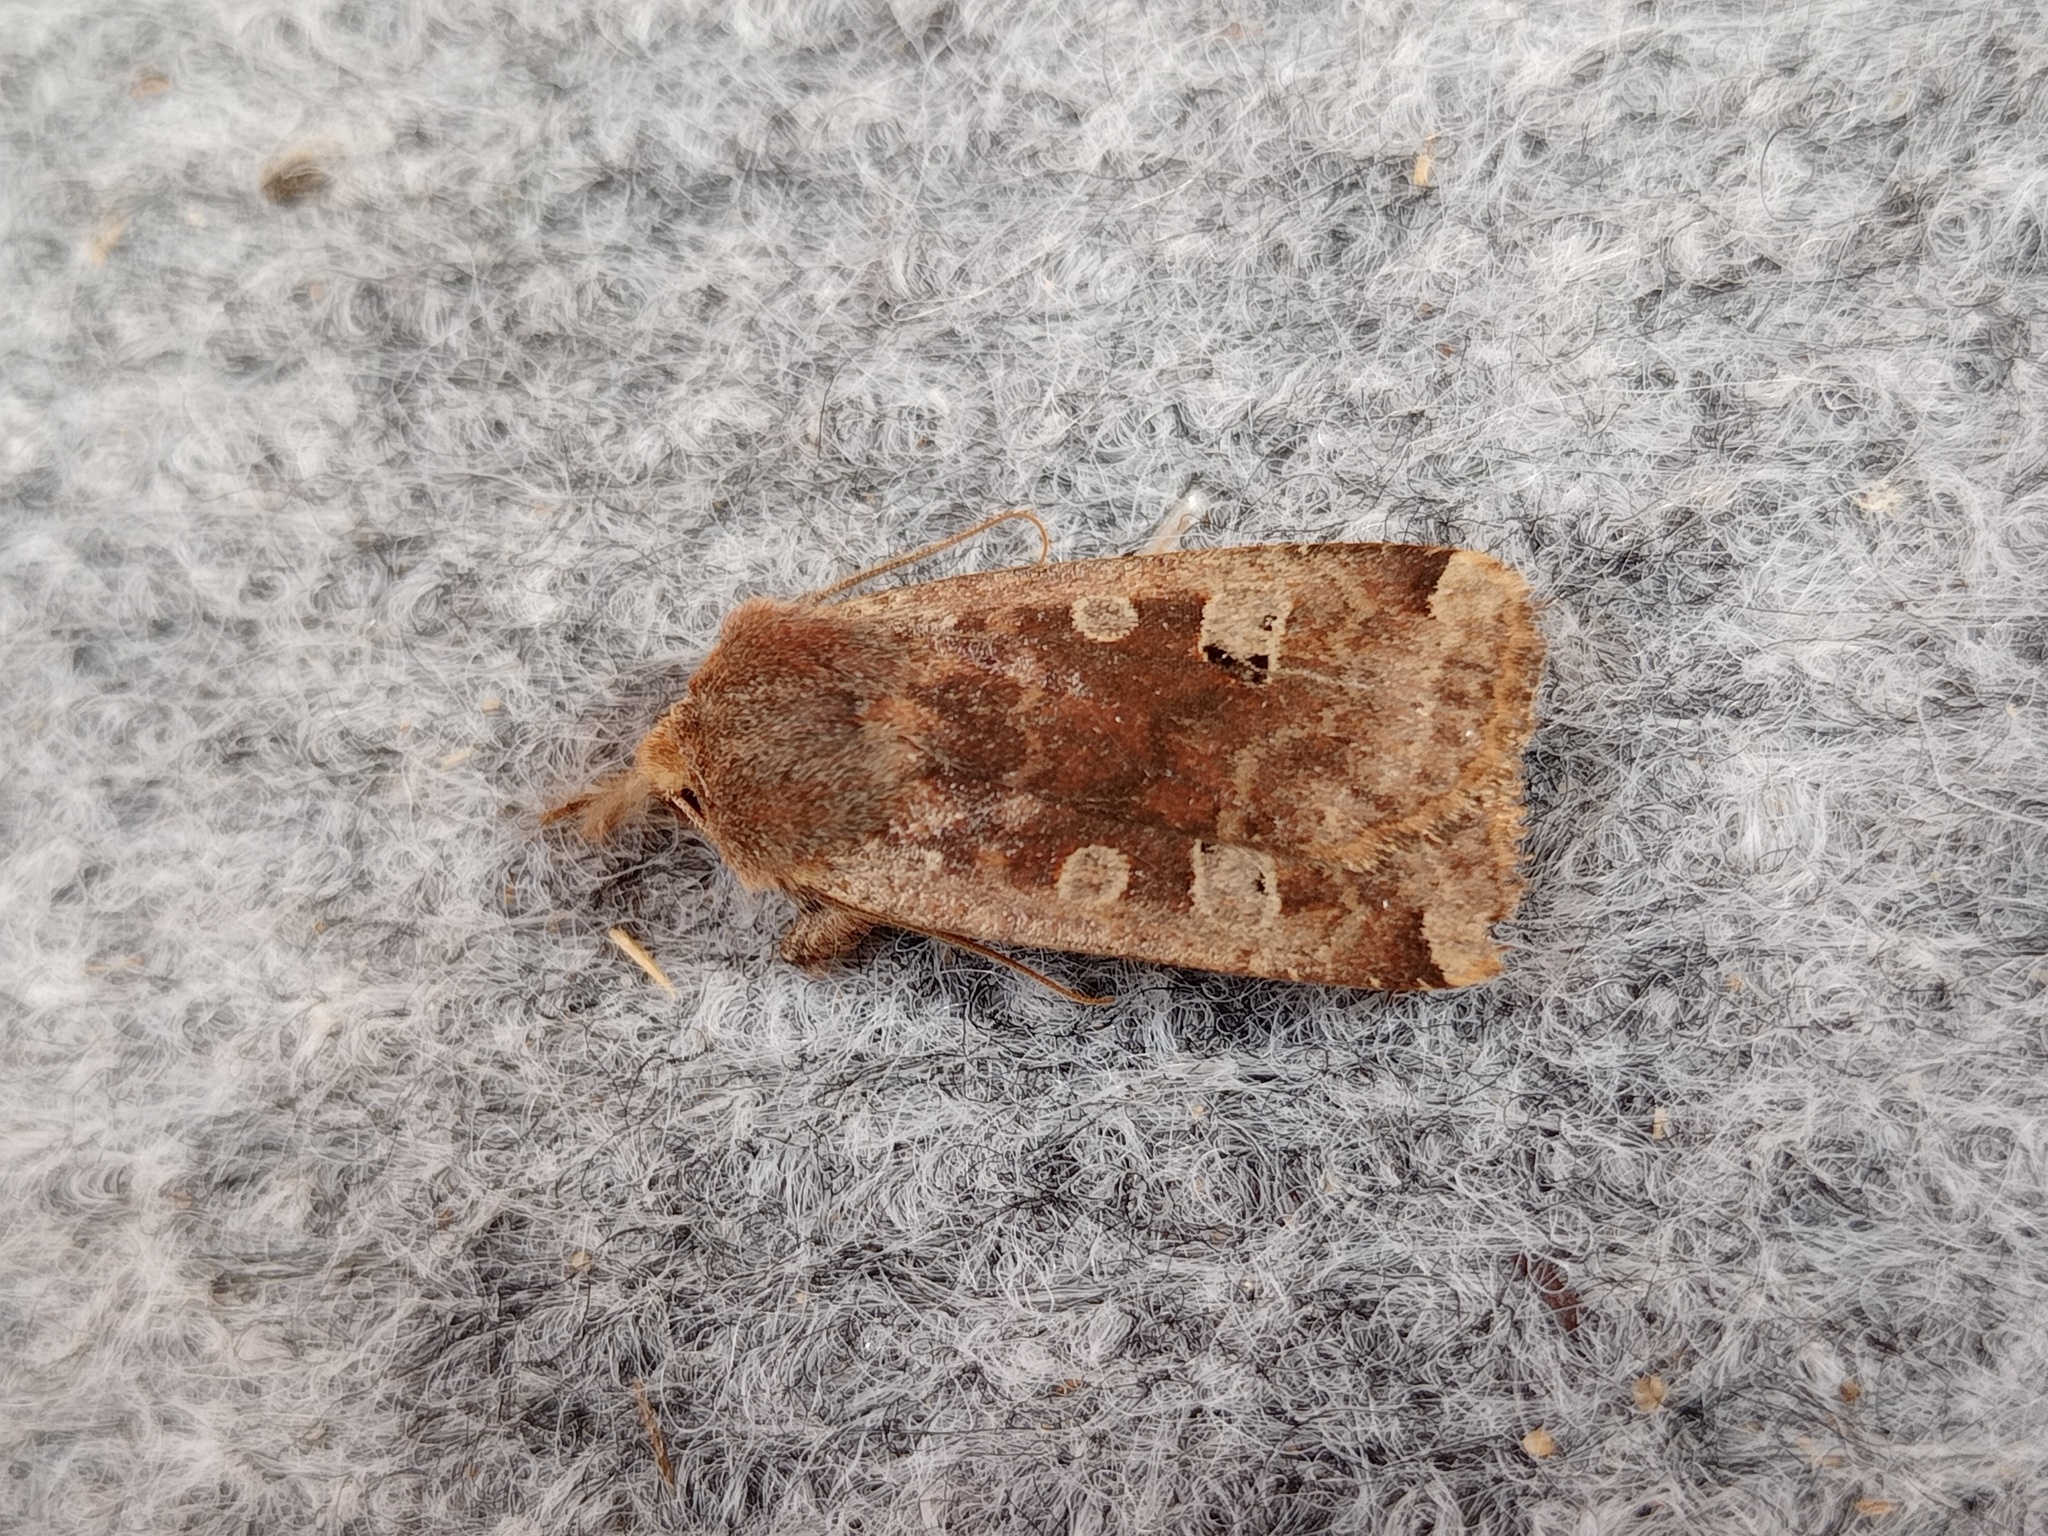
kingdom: Animalia
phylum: Arthropoda
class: Insecta
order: Lepidoptera
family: Noctuidae
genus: Conistra
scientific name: Conistra erythrocephala
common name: Red-headed chestnut
